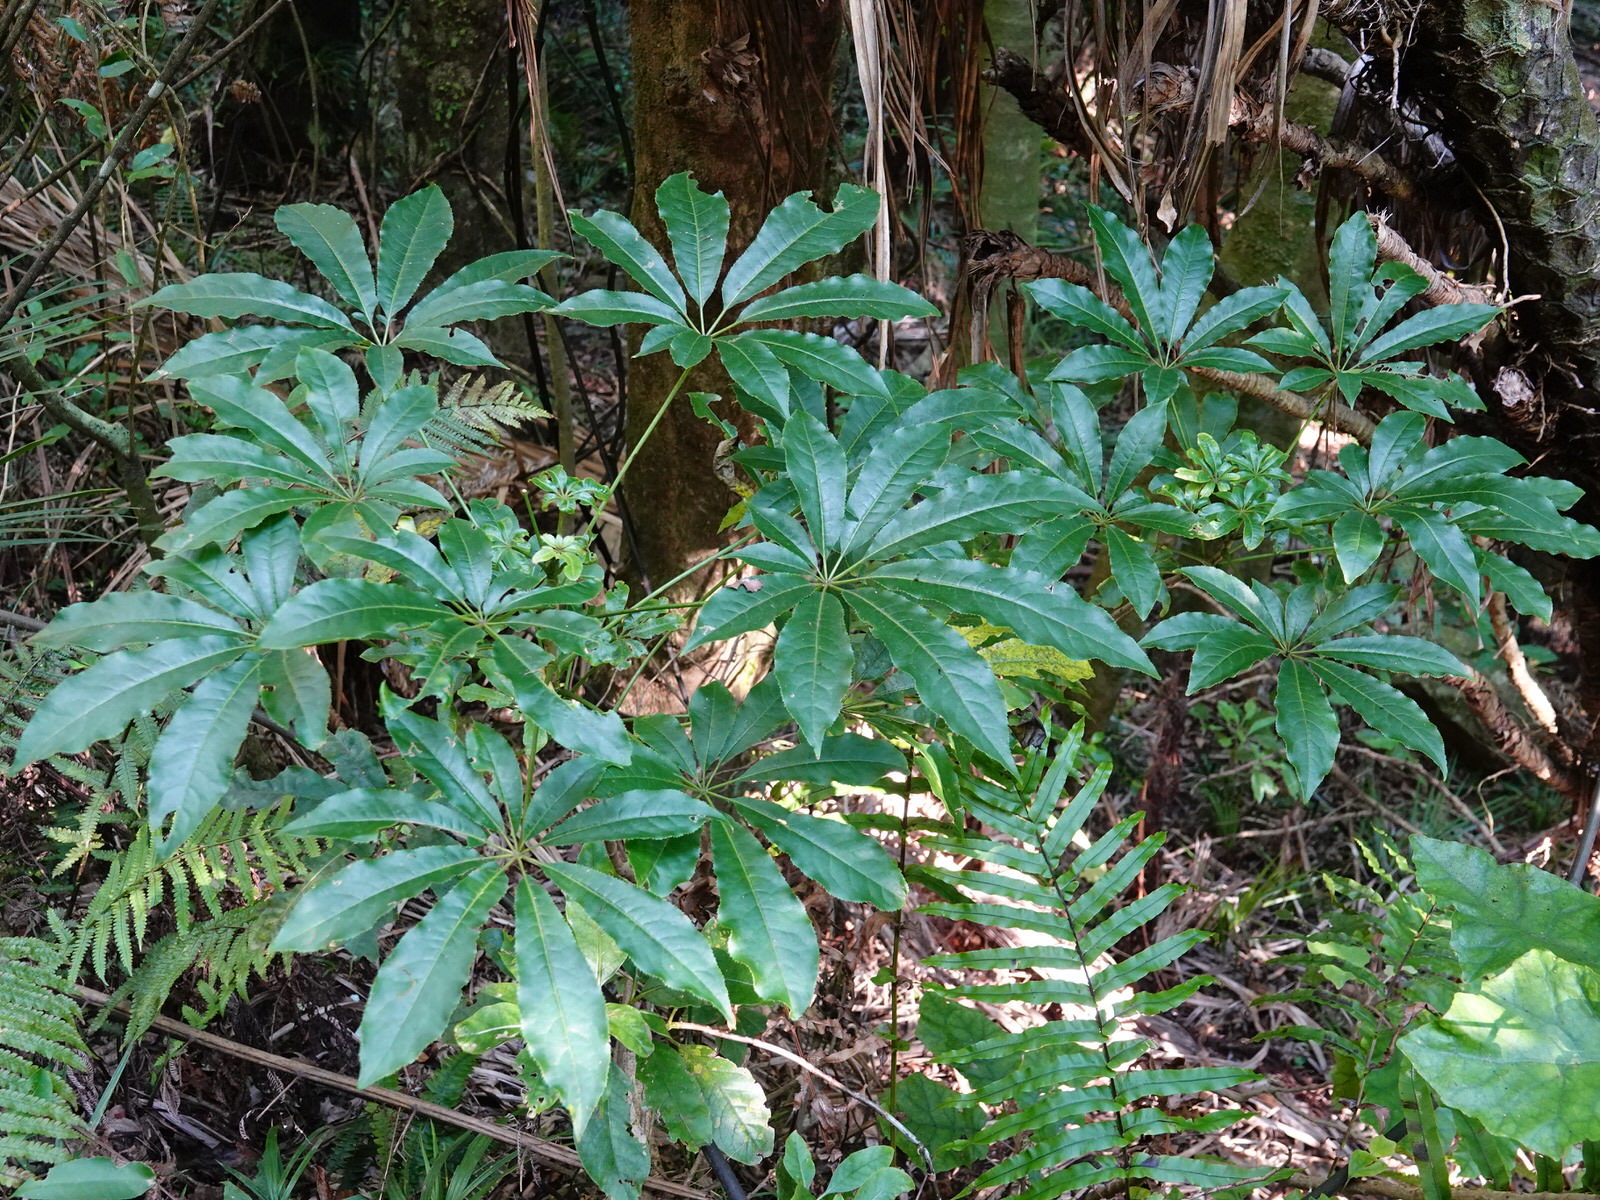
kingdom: Plantae
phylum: Tracheophyta
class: Magnoliopsida
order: Apiales
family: Araliaceae
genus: Schefflera
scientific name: Schefflera digitata
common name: Pate
